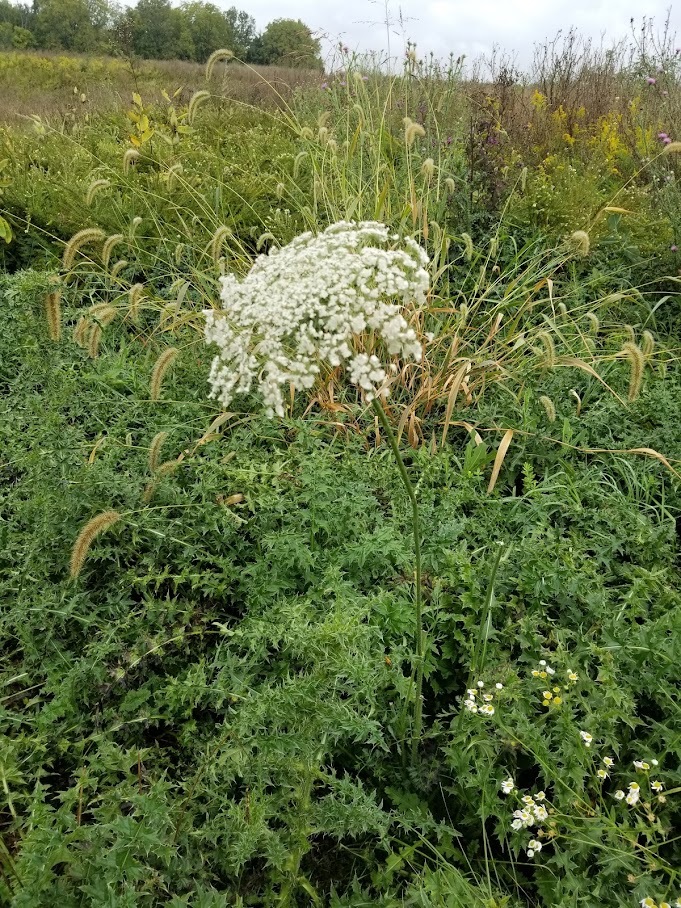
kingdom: Plantae
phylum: Tracheophyta
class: Magnoliopsida
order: Apiales
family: Apiaceae
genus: Daucus
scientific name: Daucus carota
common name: Wild carrot
